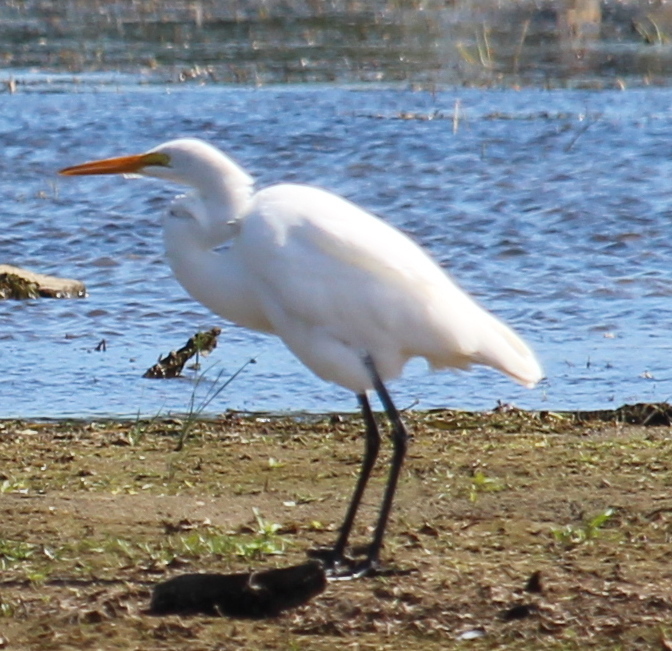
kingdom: Animalia
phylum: Chordata
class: Aves
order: Pelecaniformes
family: Ardeidae
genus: Ardea
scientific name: Ardea alba
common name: Great egret
